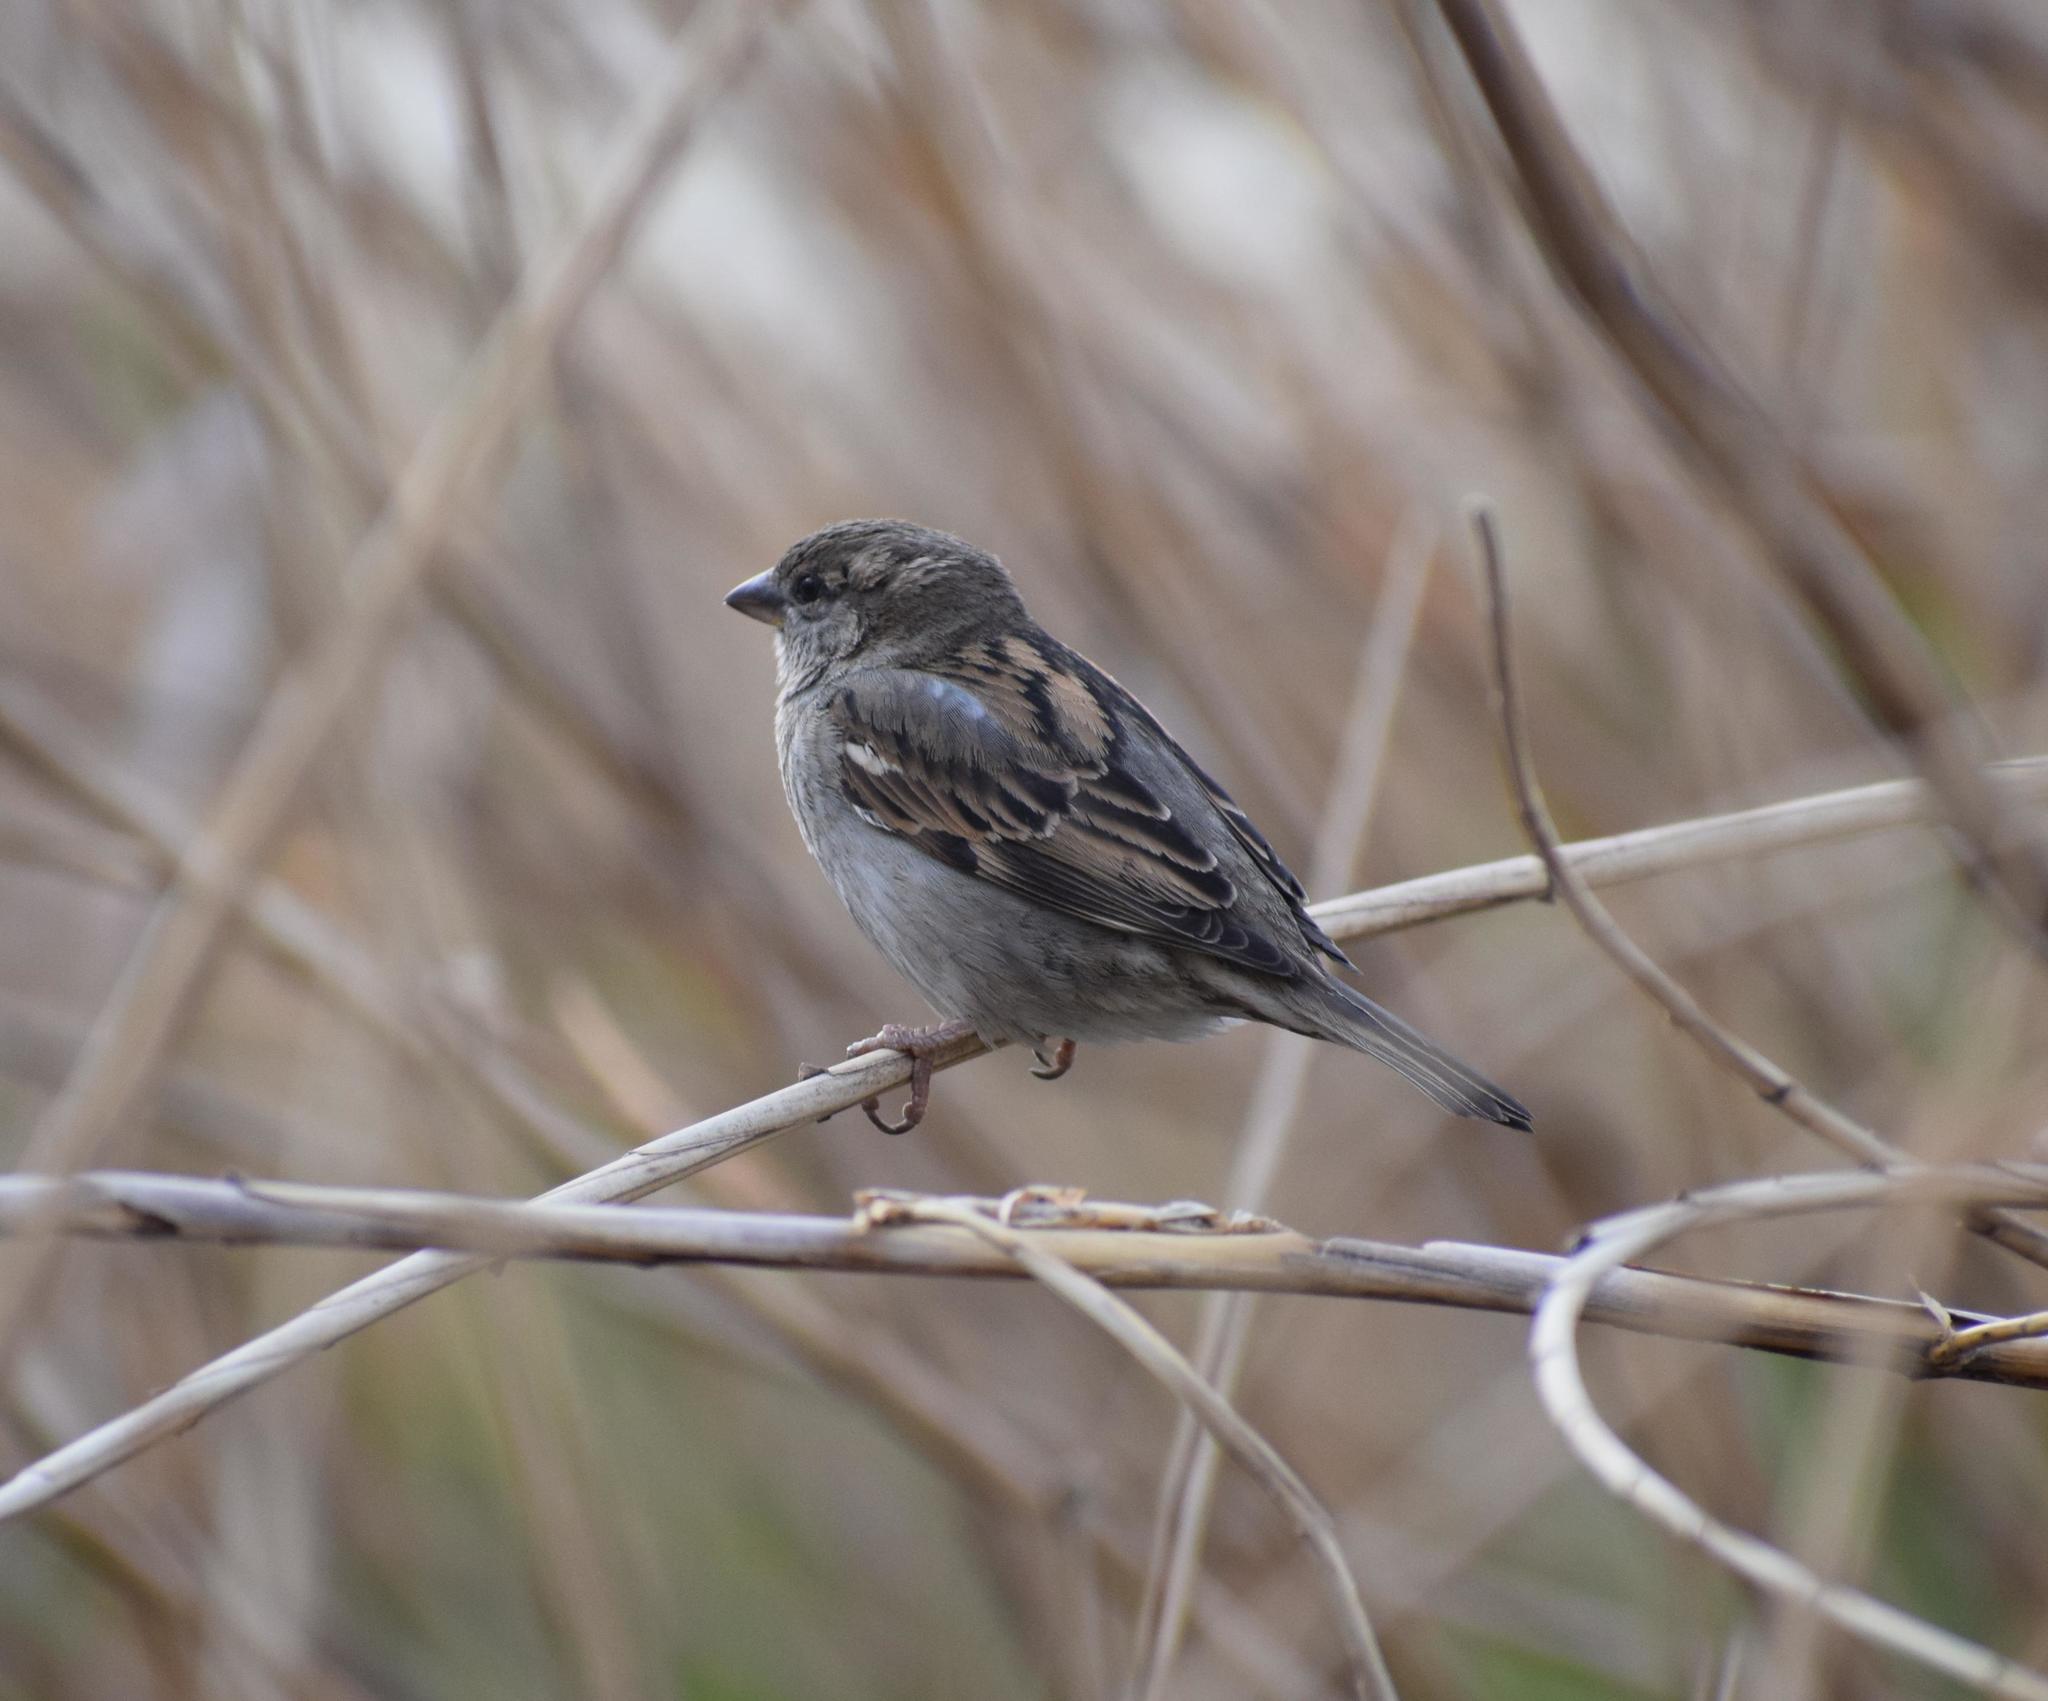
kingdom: Animalia
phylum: Chordata
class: Aves
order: Passeriformes
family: Passeridae
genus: Passer
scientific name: Passer domesticus
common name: House sparrow
